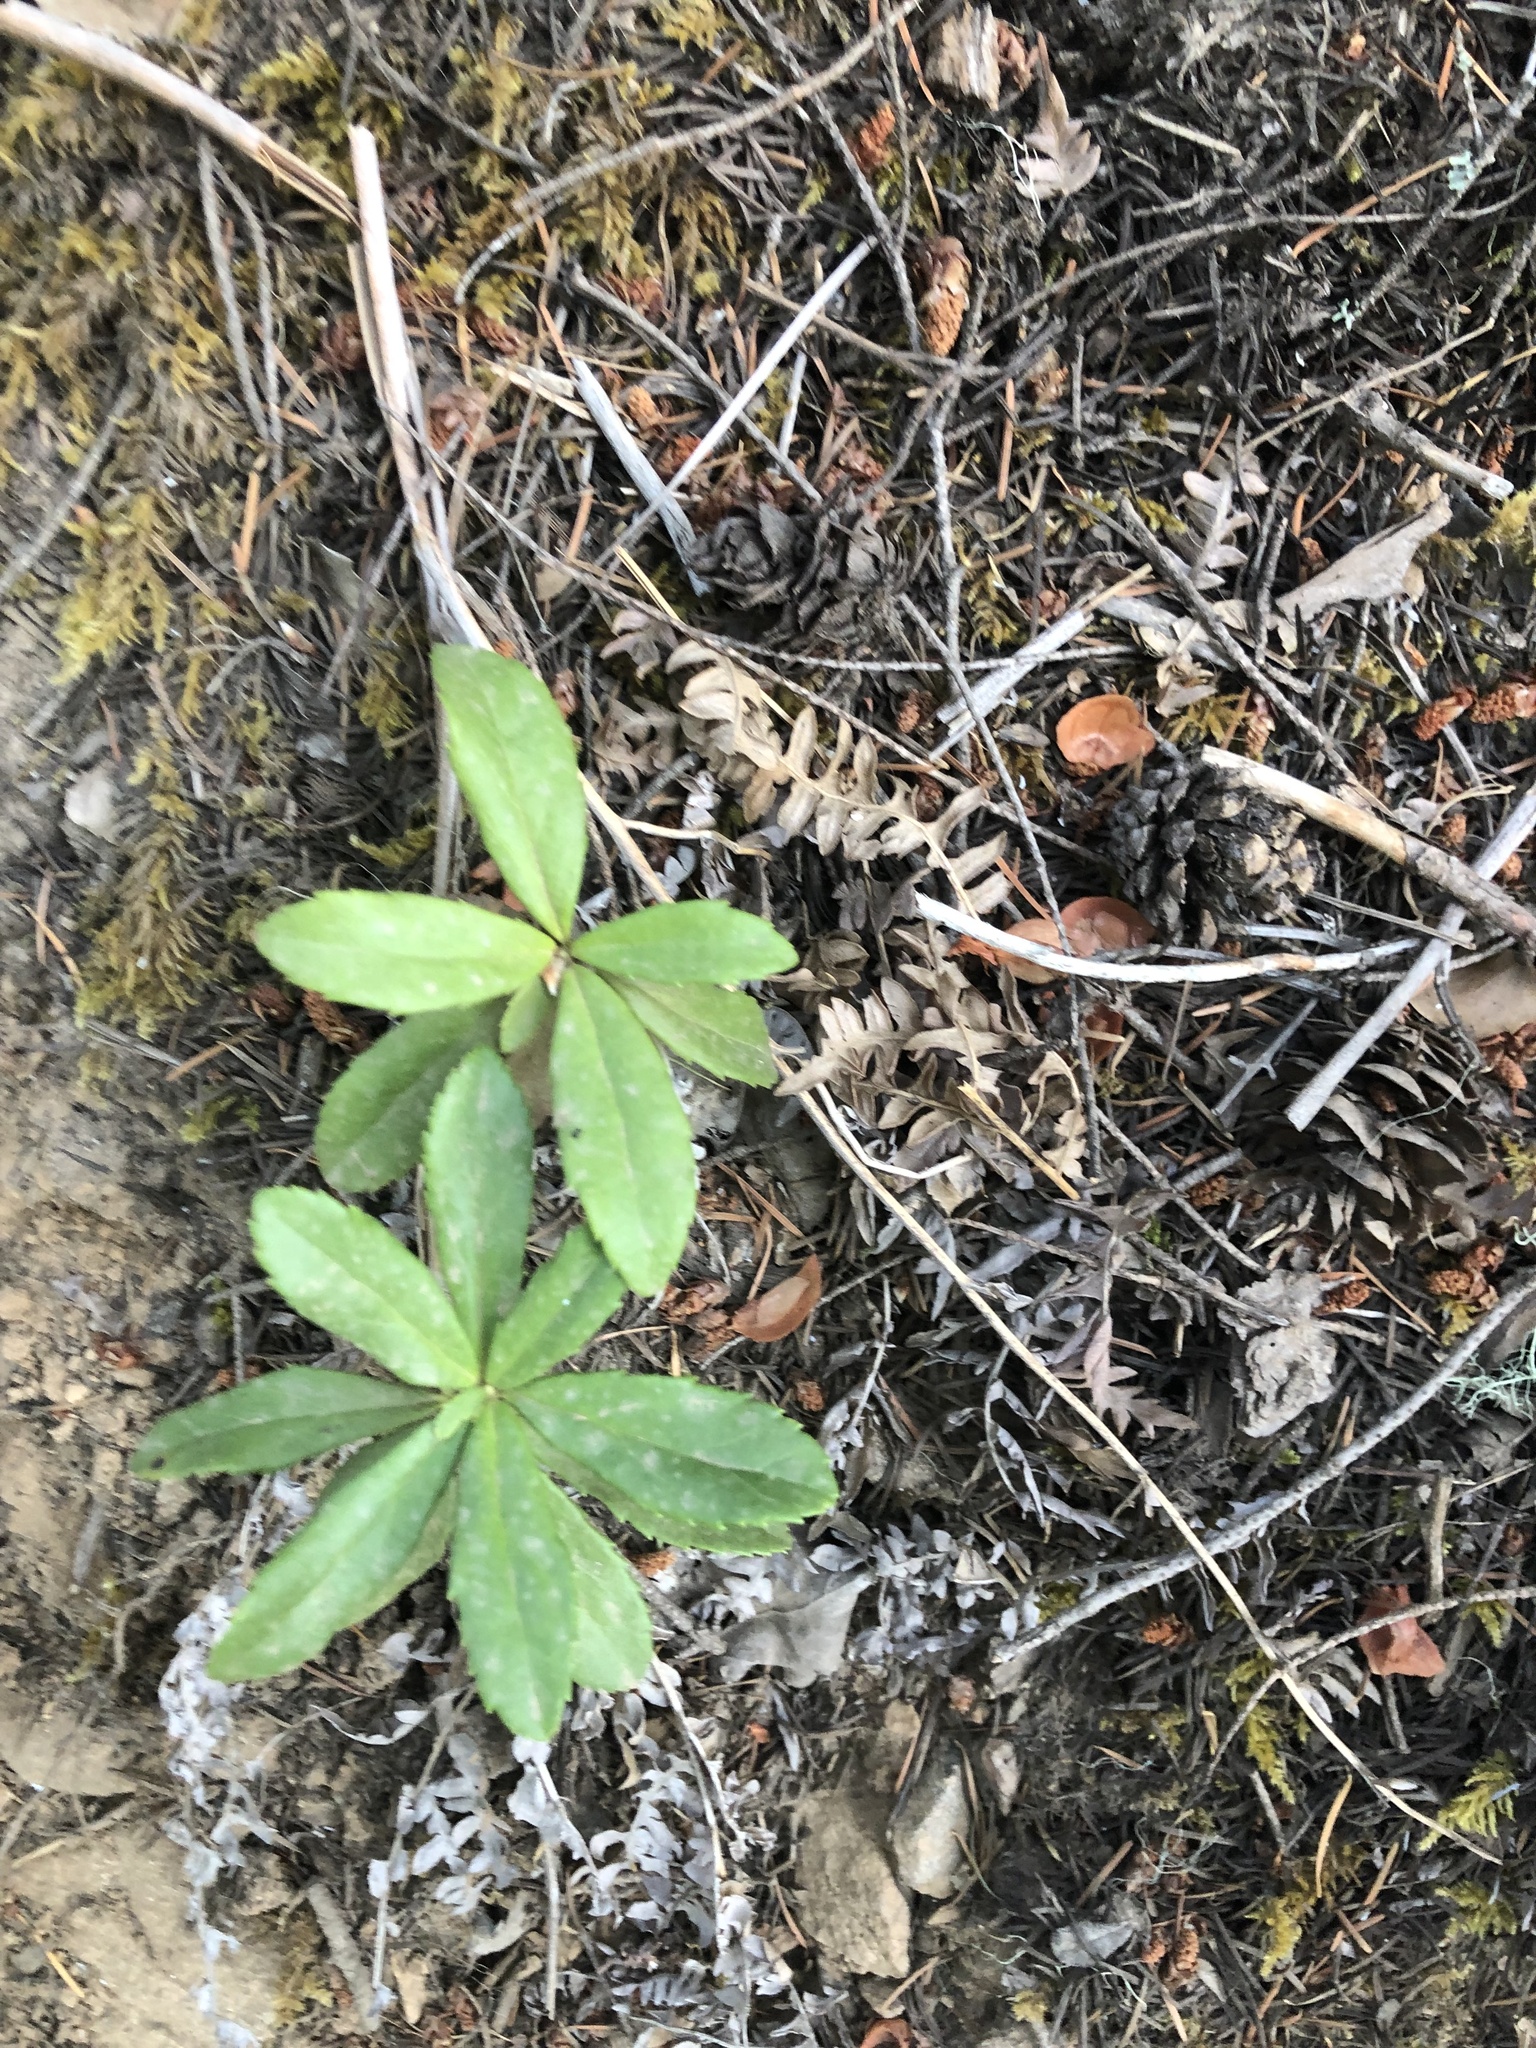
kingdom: Plantae
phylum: Tracheophyta
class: Magnoliopsida
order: Ericales
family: Ericaceae
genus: Chimaphila
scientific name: Chimaphila umbellata
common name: Pipsissewa
